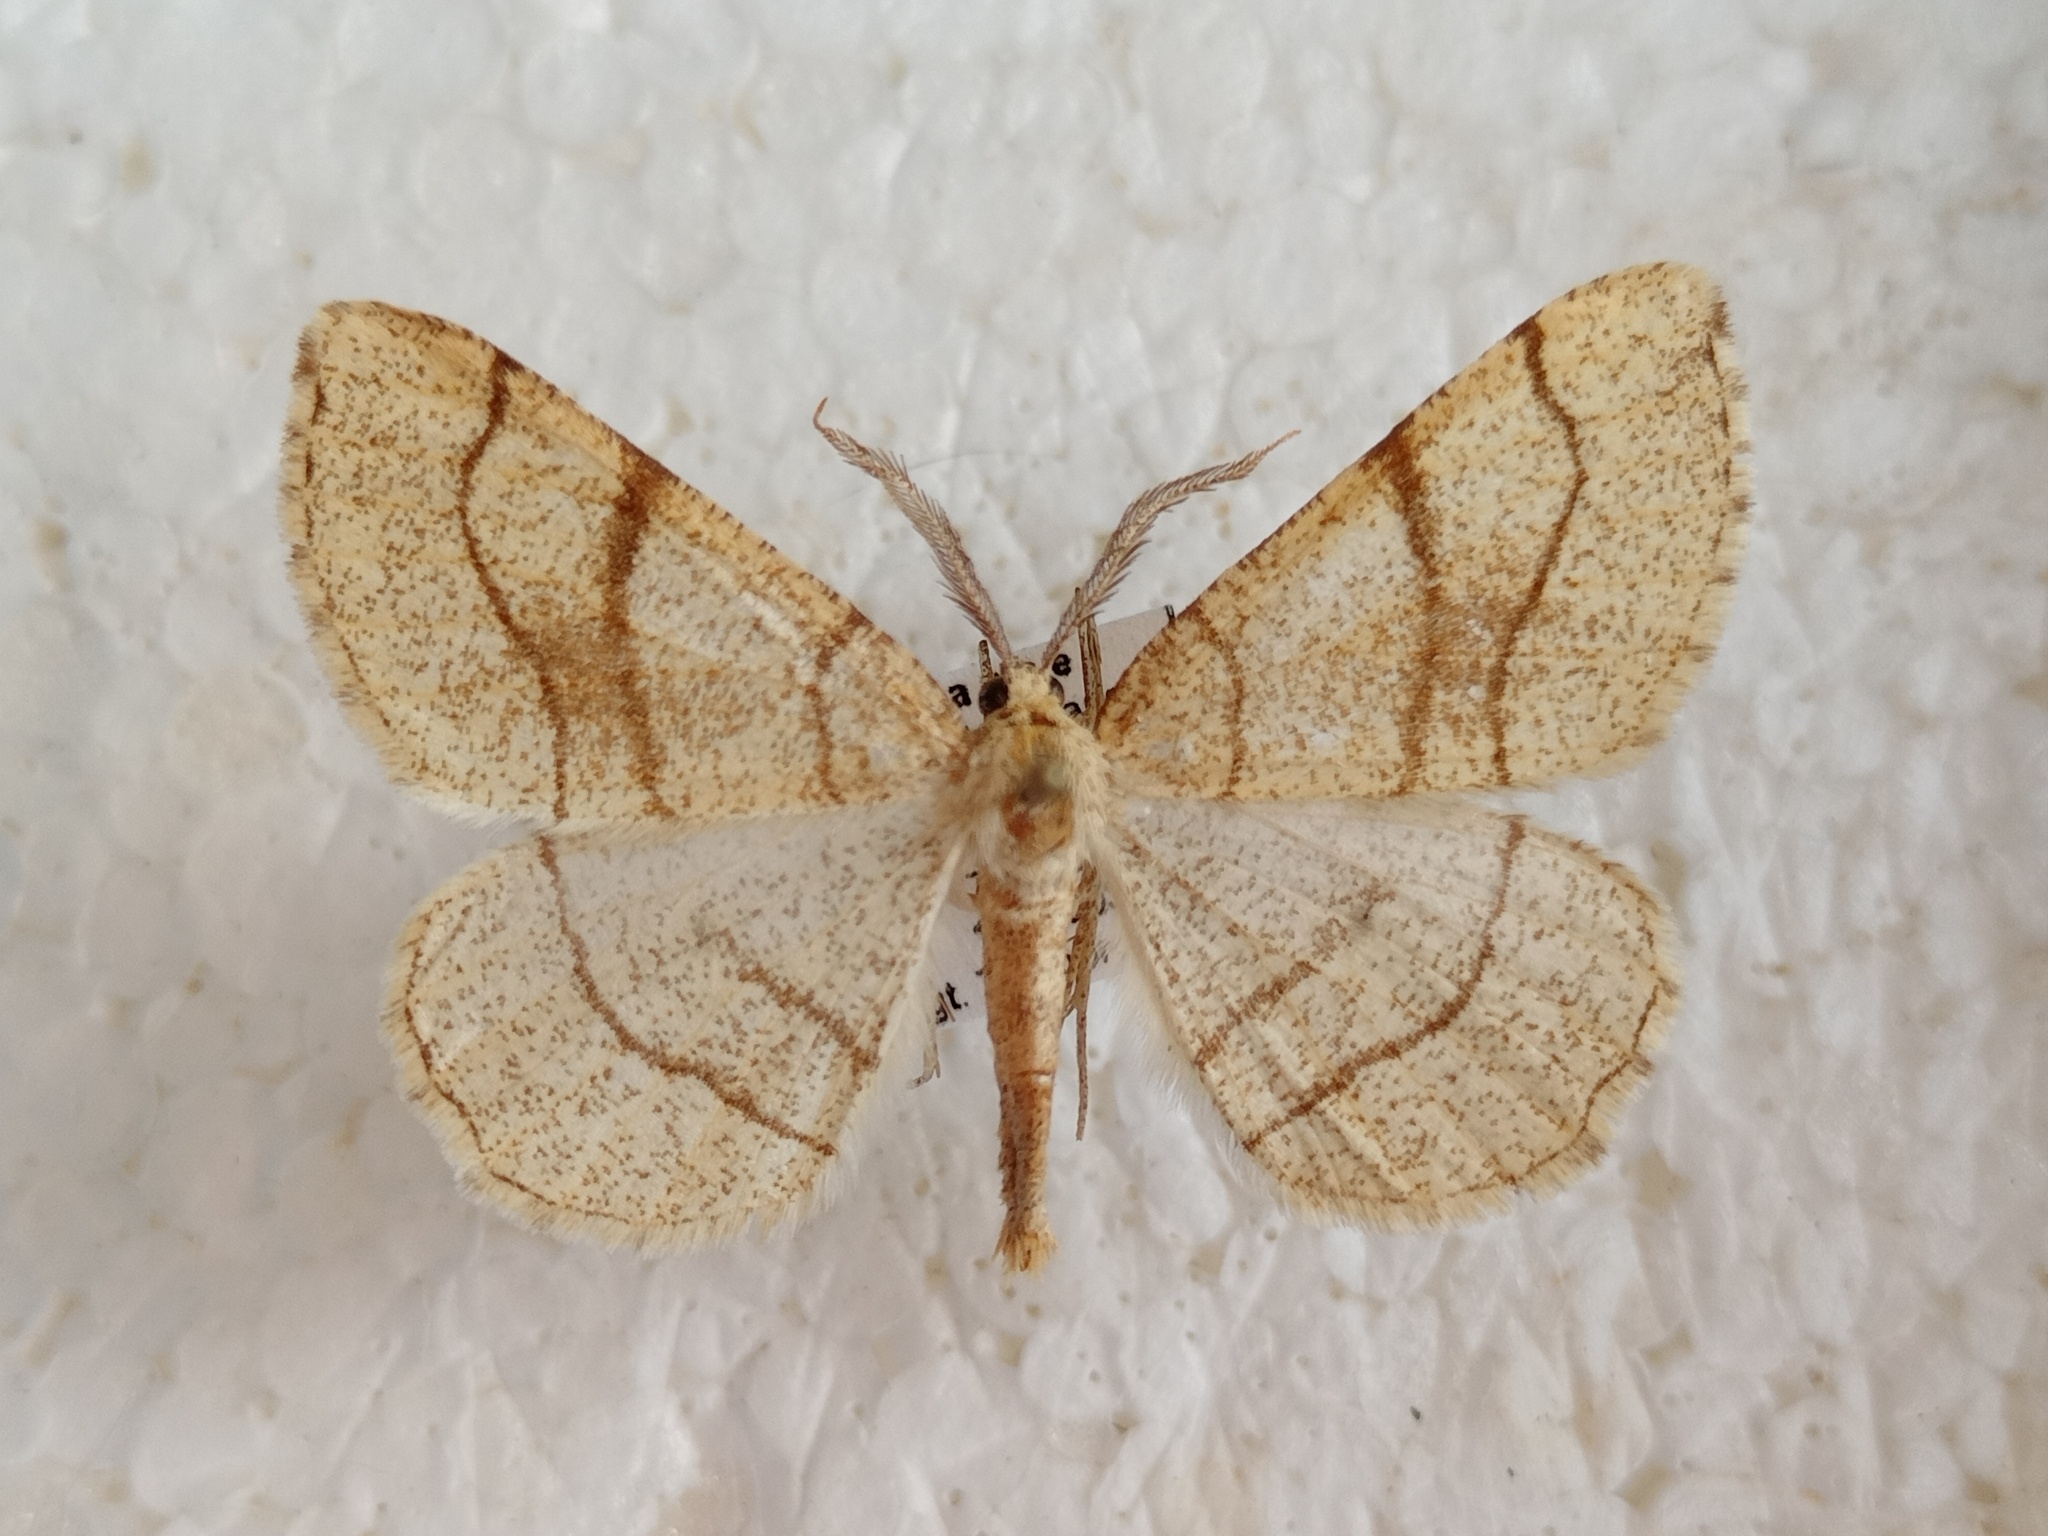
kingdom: Animalia
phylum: Arthropoda
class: Insecta
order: Lepidoptera
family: Geometridae
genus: Adactylotis
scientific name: Adactylotis contaminaria
